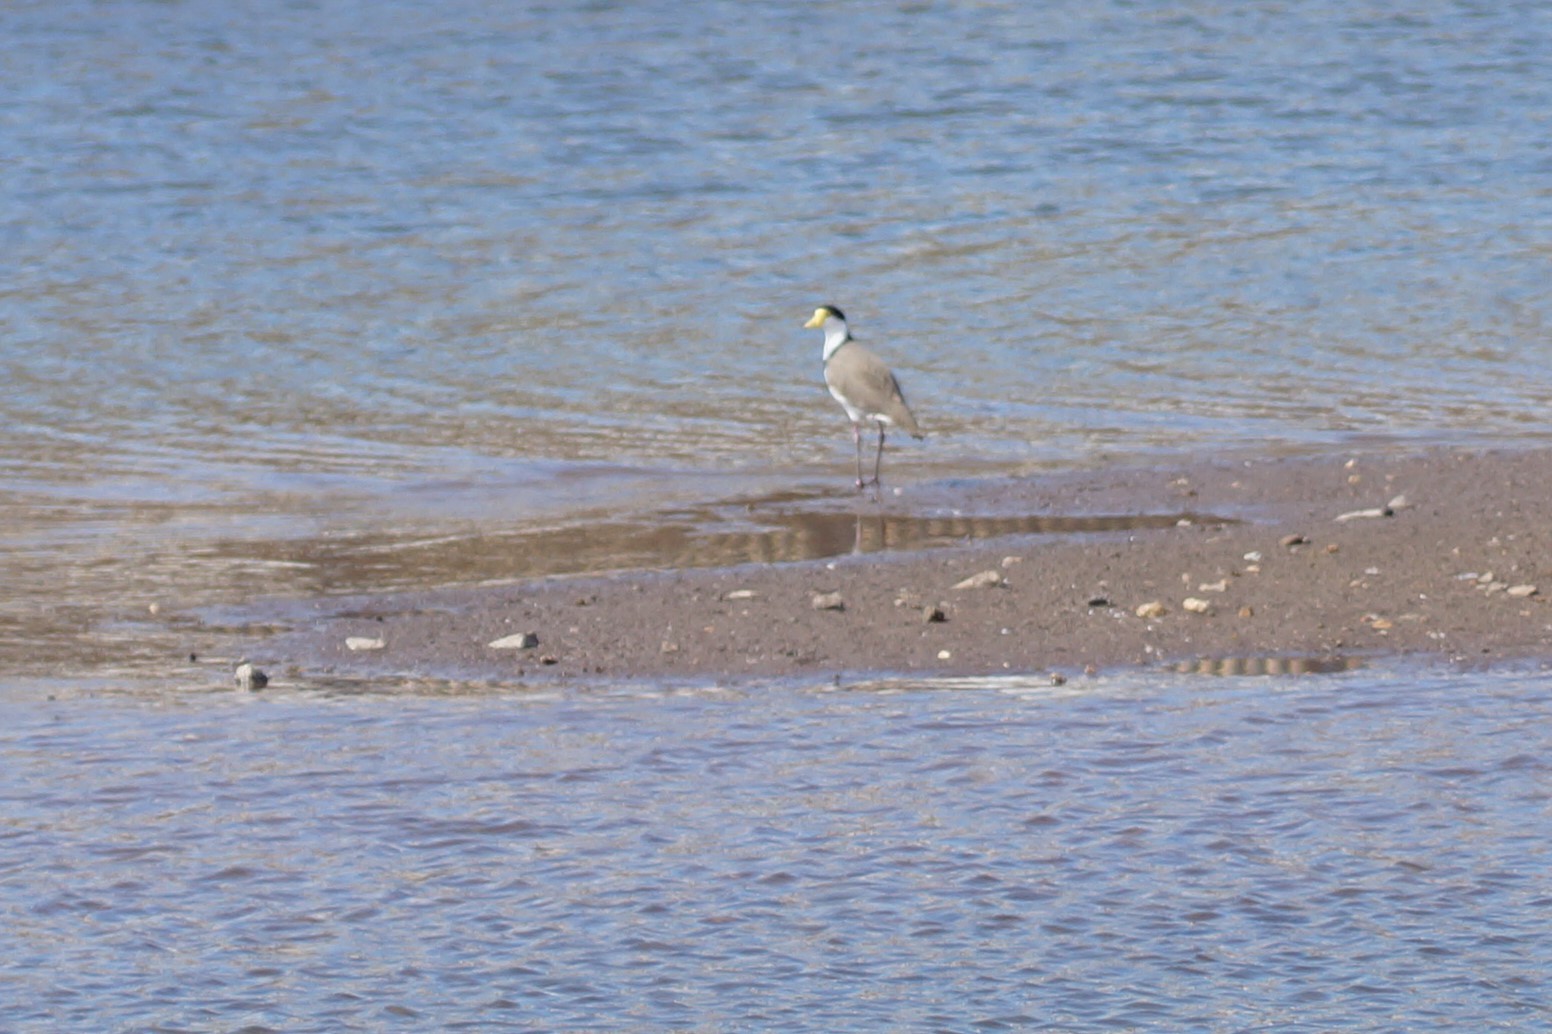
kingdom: Animalia
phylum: Chordata
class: Aves
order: Charadriiformes
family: Charadriidae
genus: Vanellus
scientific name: Vanellus miles
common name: Masked lapwing
